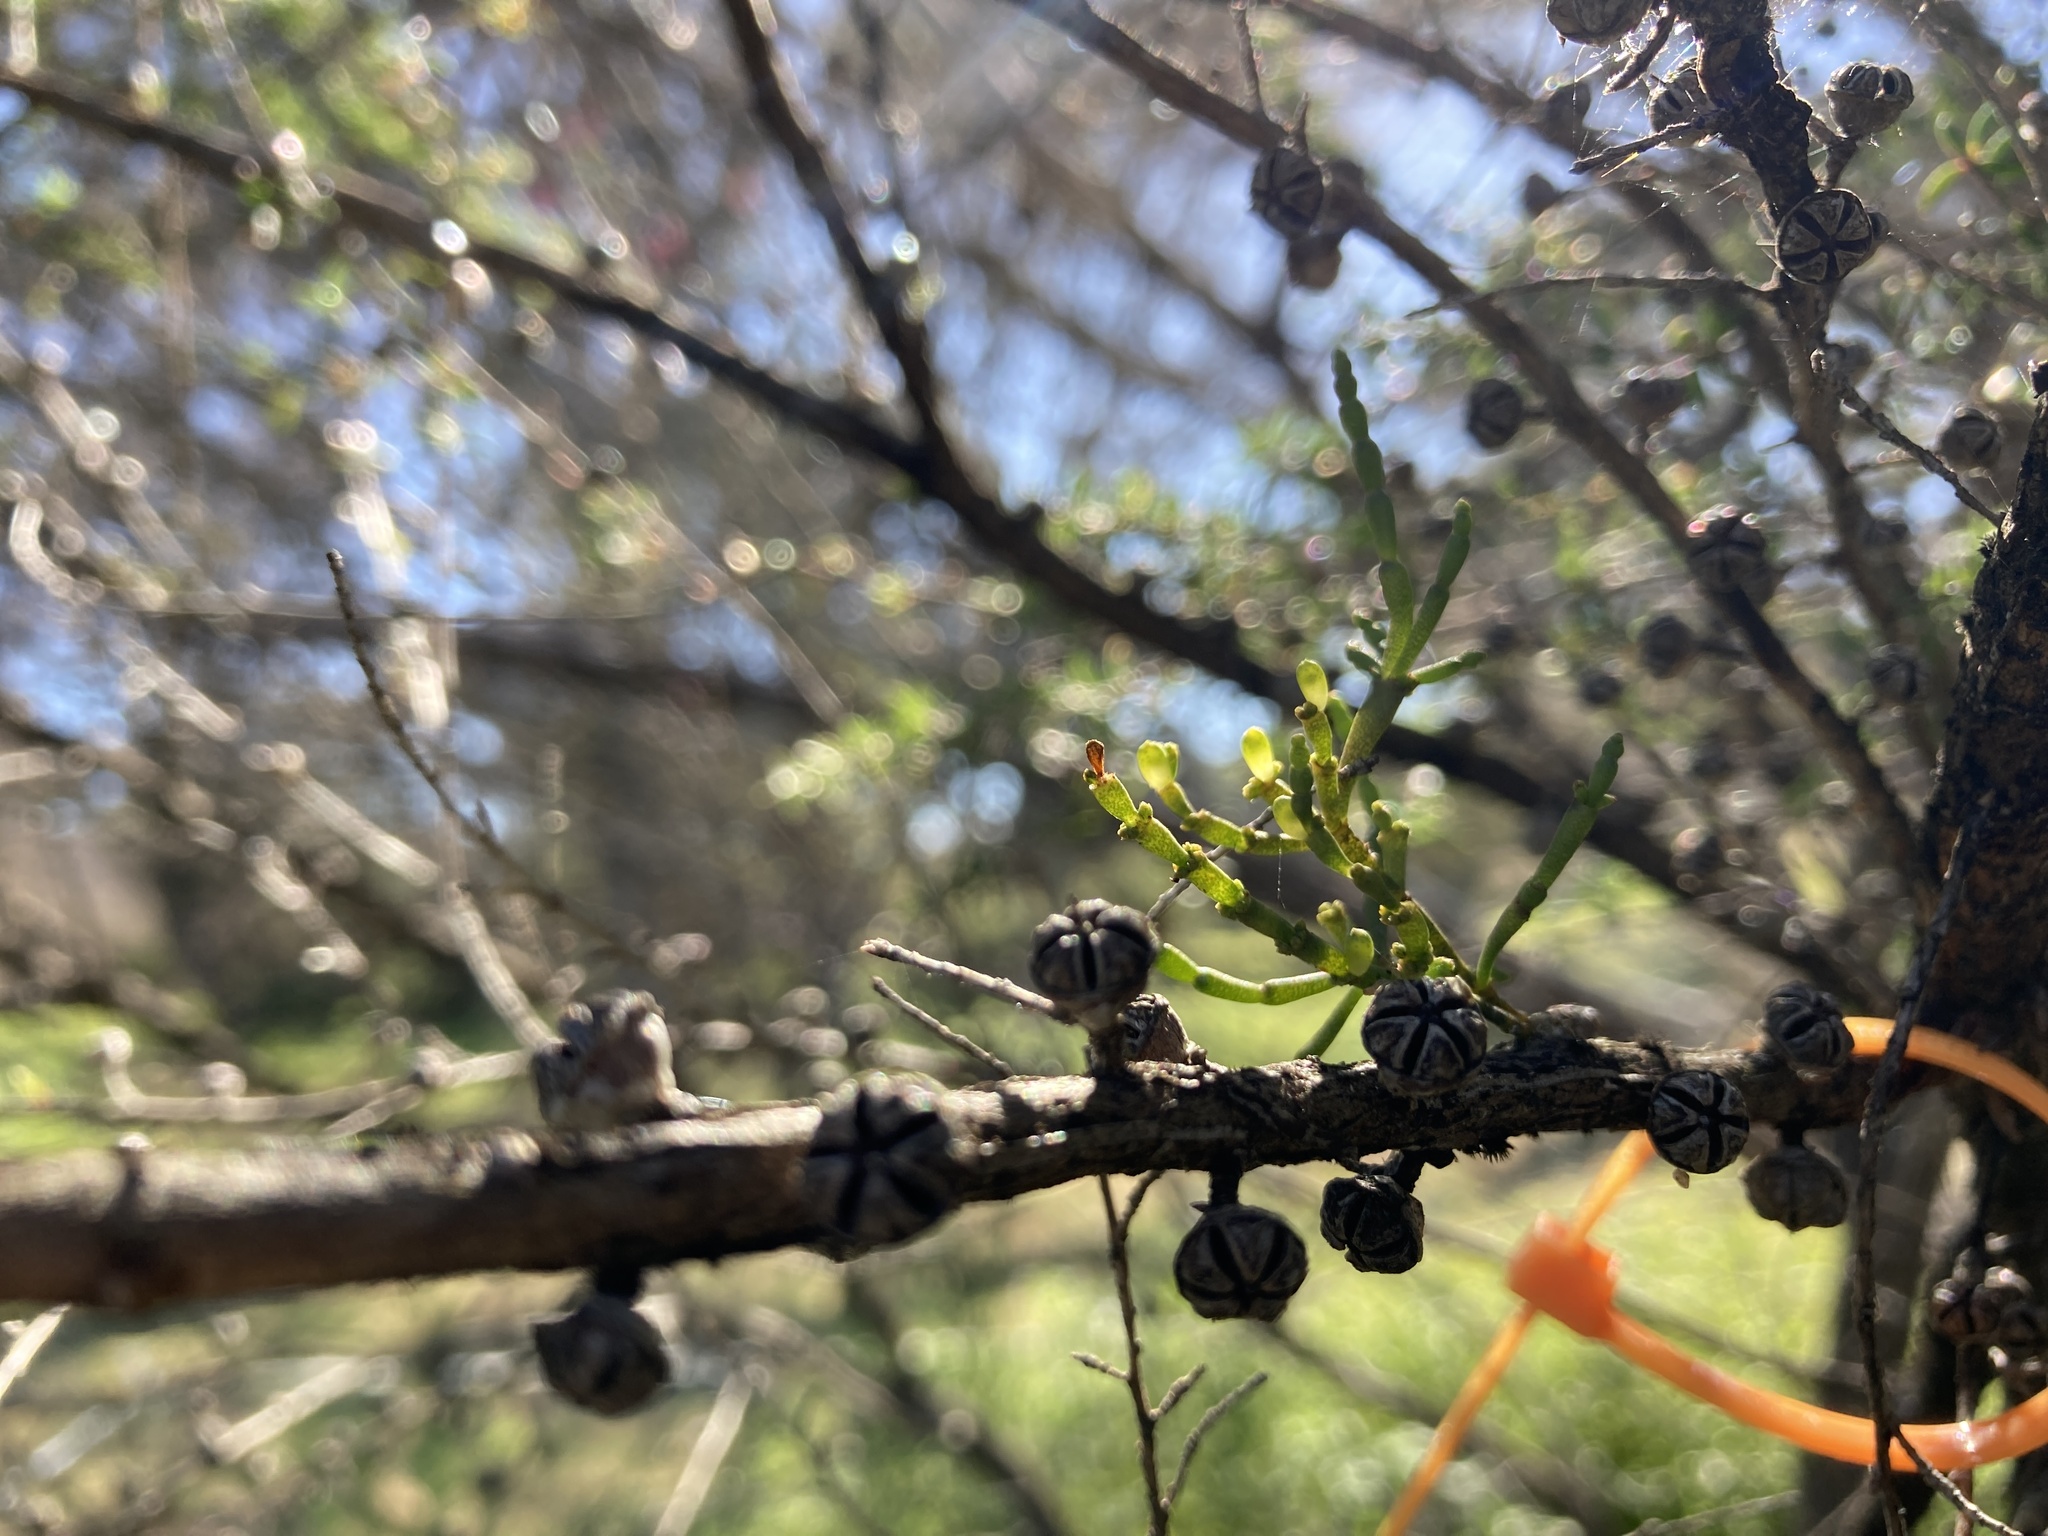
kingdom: Plantae
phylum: Tracheophyta
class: Magnoliopsida
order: Santalales
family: Viscaceae
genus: Korthalsella
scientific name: Korthalsella salicornioides
